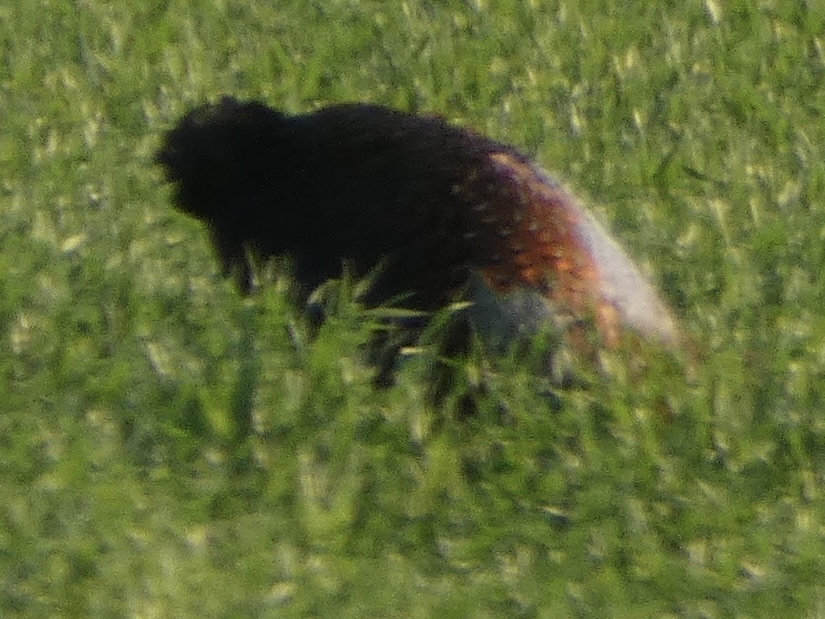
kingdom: Animalia
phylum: Chordata
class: Aves
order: Galliformes
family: Phasianidae
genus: Phasianus
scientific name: Phasianus colchicus
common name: Common pheasant
